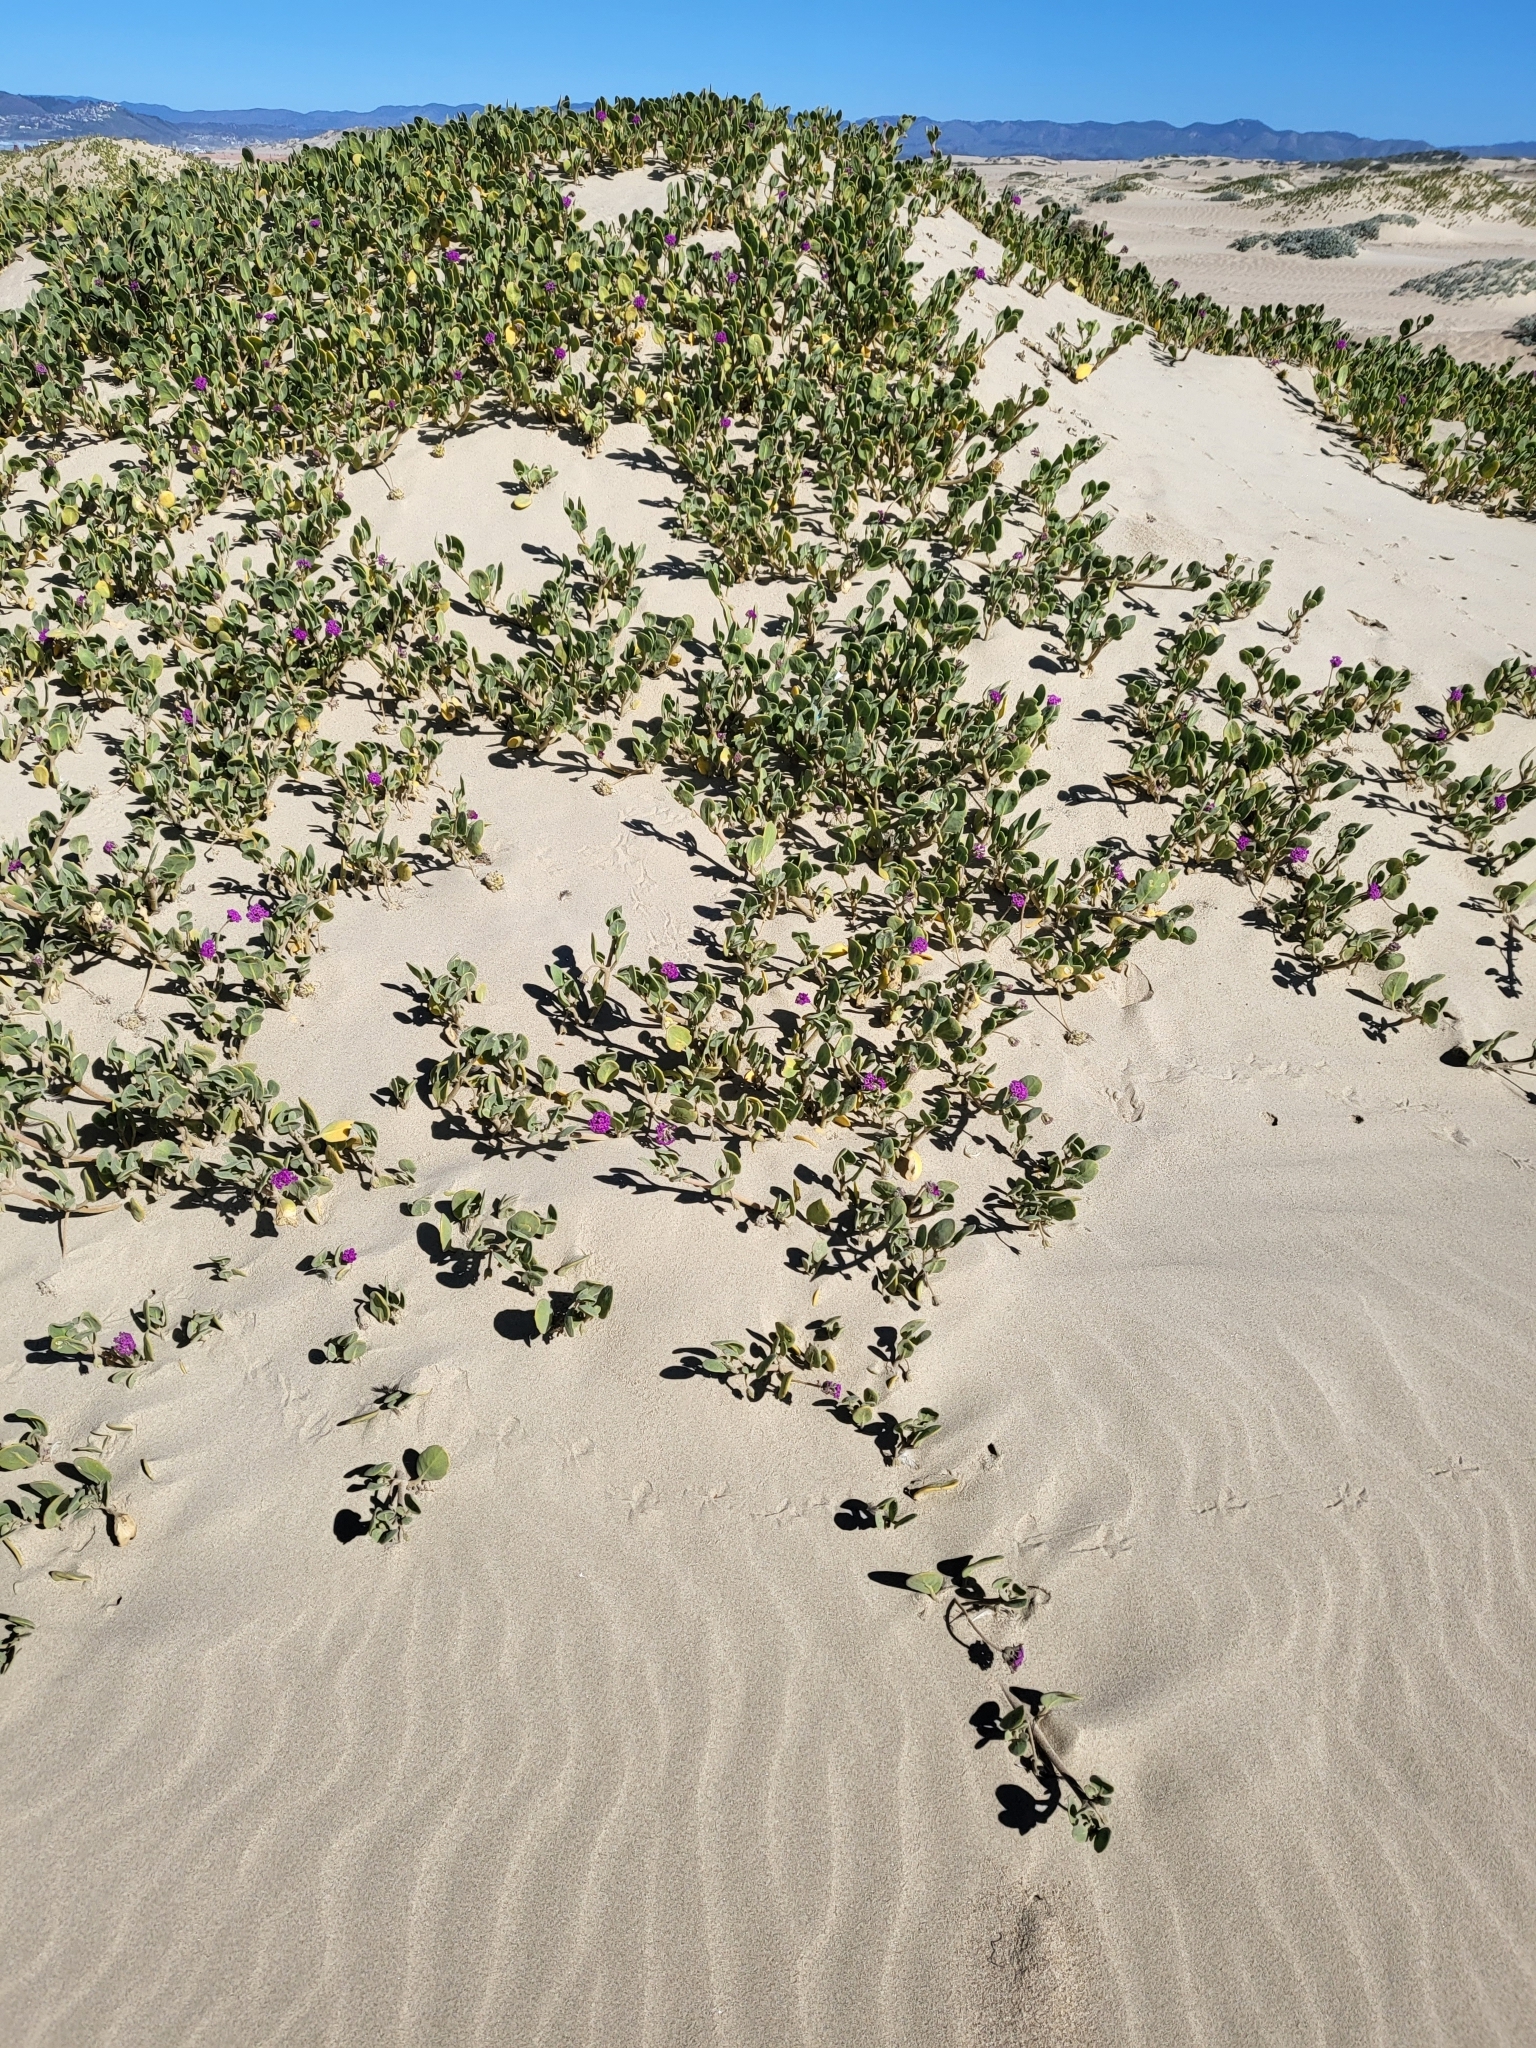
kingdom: Plantae
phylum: Tracheophyta
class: Magnoliopsida
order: Caryophyllales
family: Nyctaginaceae
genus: Abronia
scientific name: Abronia maritima
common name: Red sand-verbena
